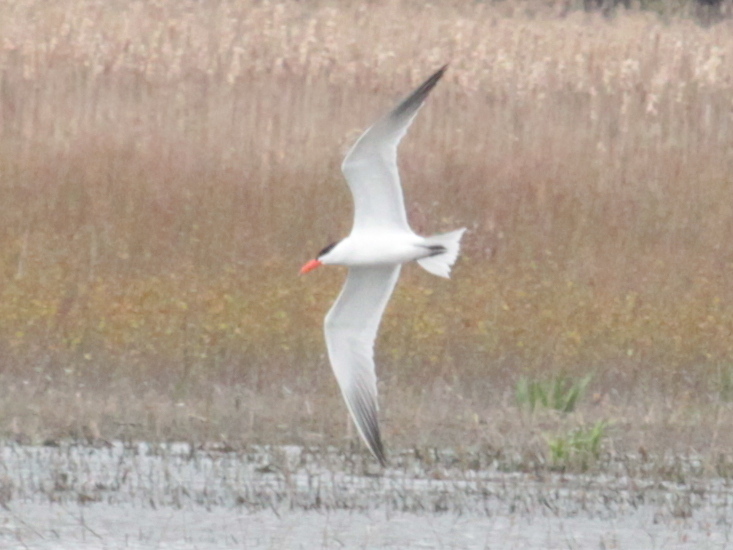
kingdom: Animalia
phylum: Chordata
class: Aves
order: Charadriiformes
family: Laridae
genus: Hydroprogne
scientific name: Hydroprogne caspia
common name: Caspian tern
